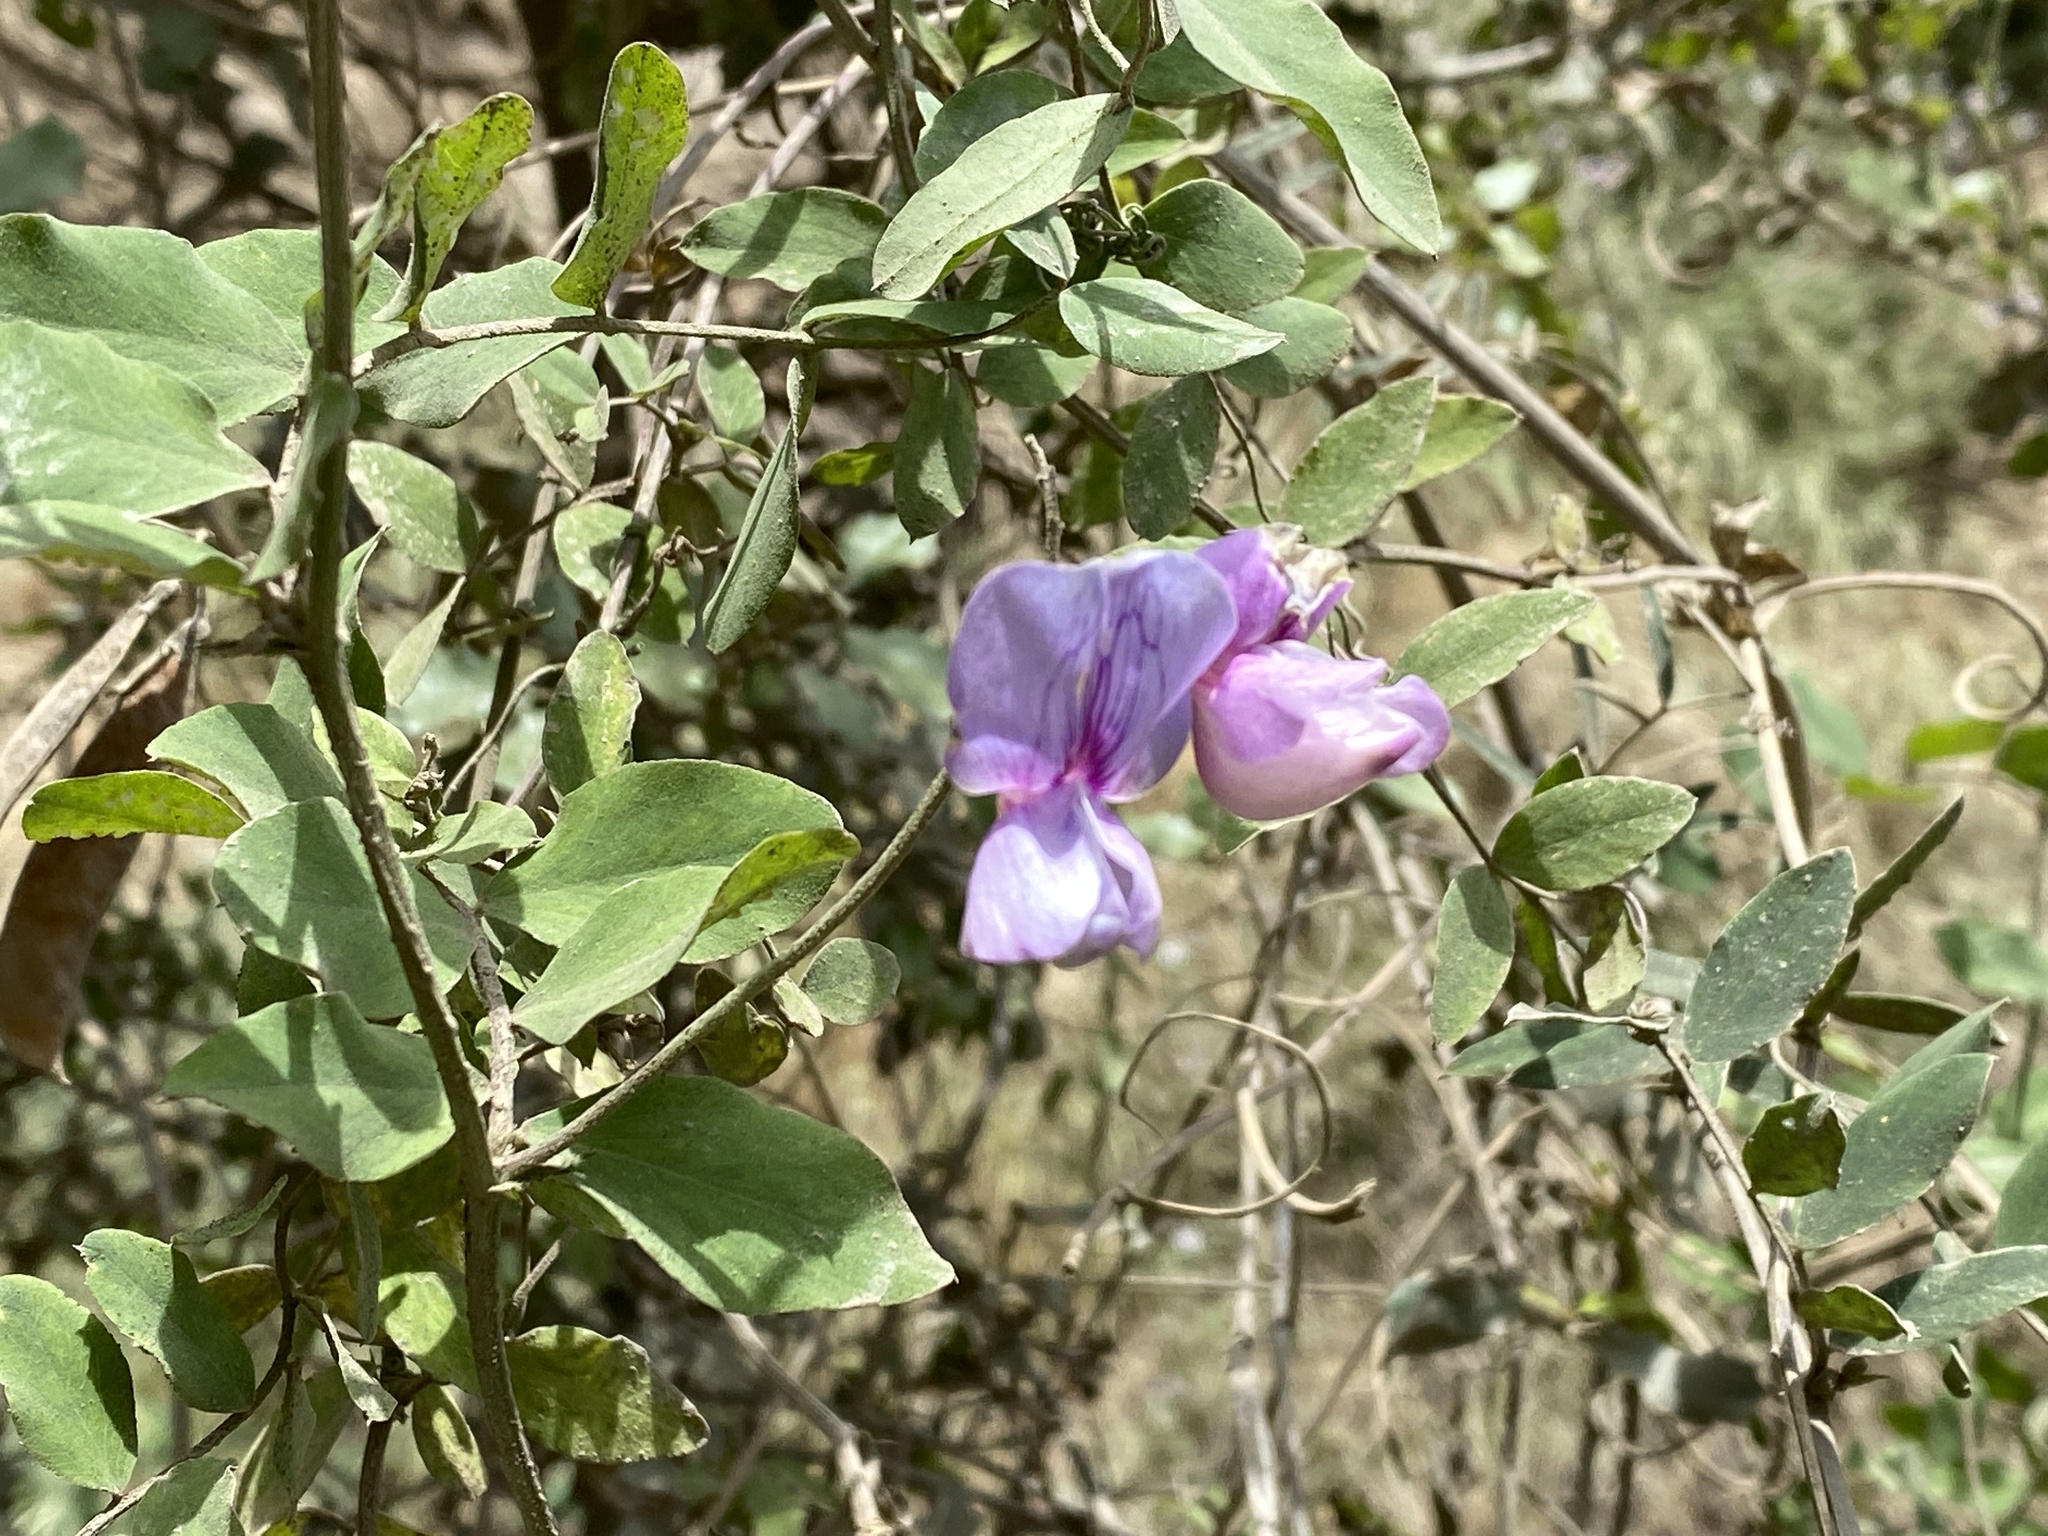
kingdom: Plantae
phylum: Tracheophyta
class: Magnoliopsida
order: Fabales
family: Fabaceae
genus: Lathyrus
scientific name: Lathyrus vestitus
